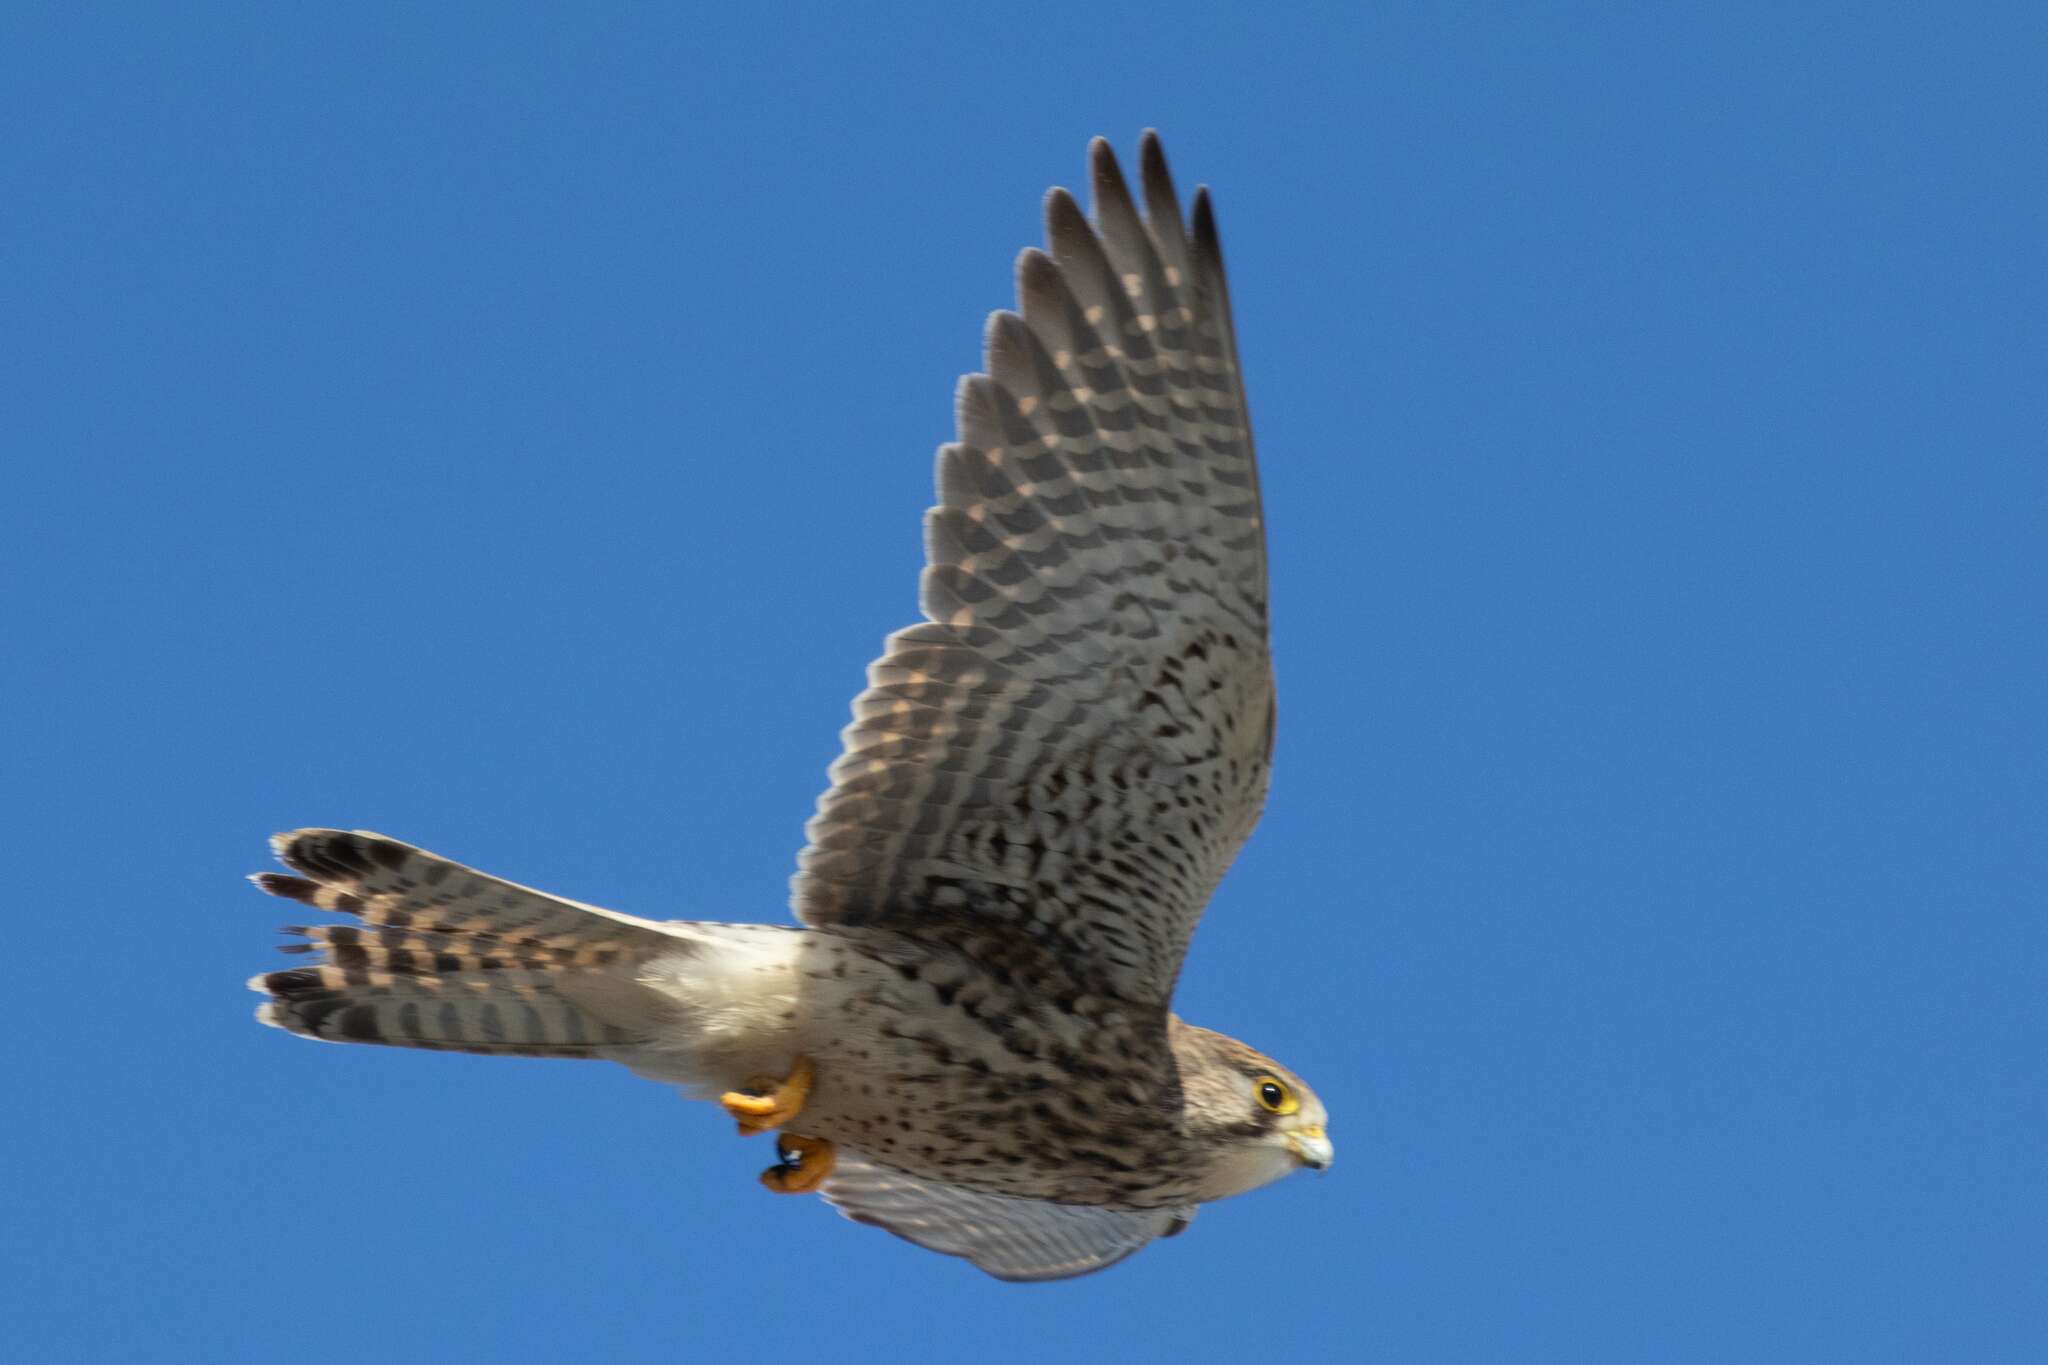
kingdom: Animalia
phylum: Chordata
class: Aves
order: Falconiformes
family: Falconidae
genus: Falco
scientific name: Falco tinnunculus
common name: Common kestrel
